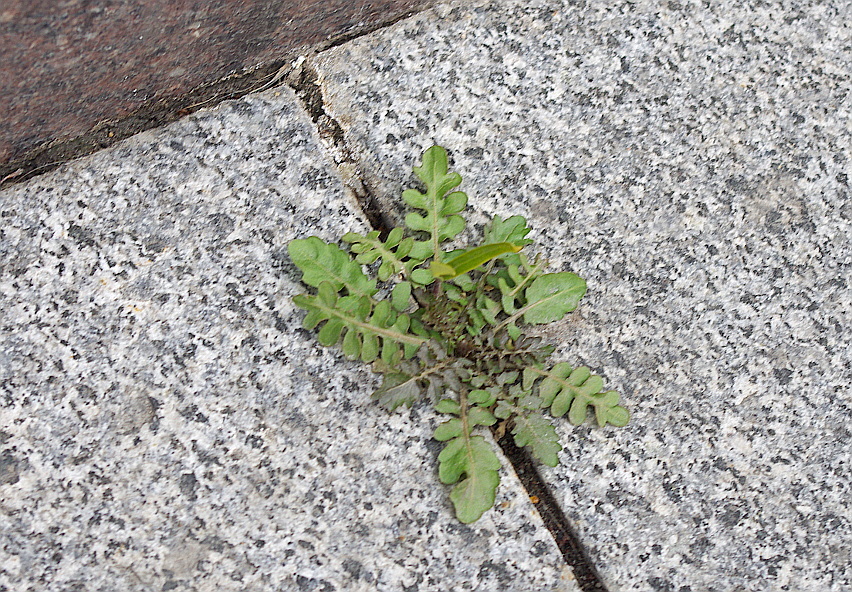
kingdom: Plantae
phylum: Tracheophyta
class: Magnoliopsida
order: Brassicales
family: Brassicaceae
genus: Rorippa
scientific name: Rorippa palustris
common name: Marsh yellow-cress
